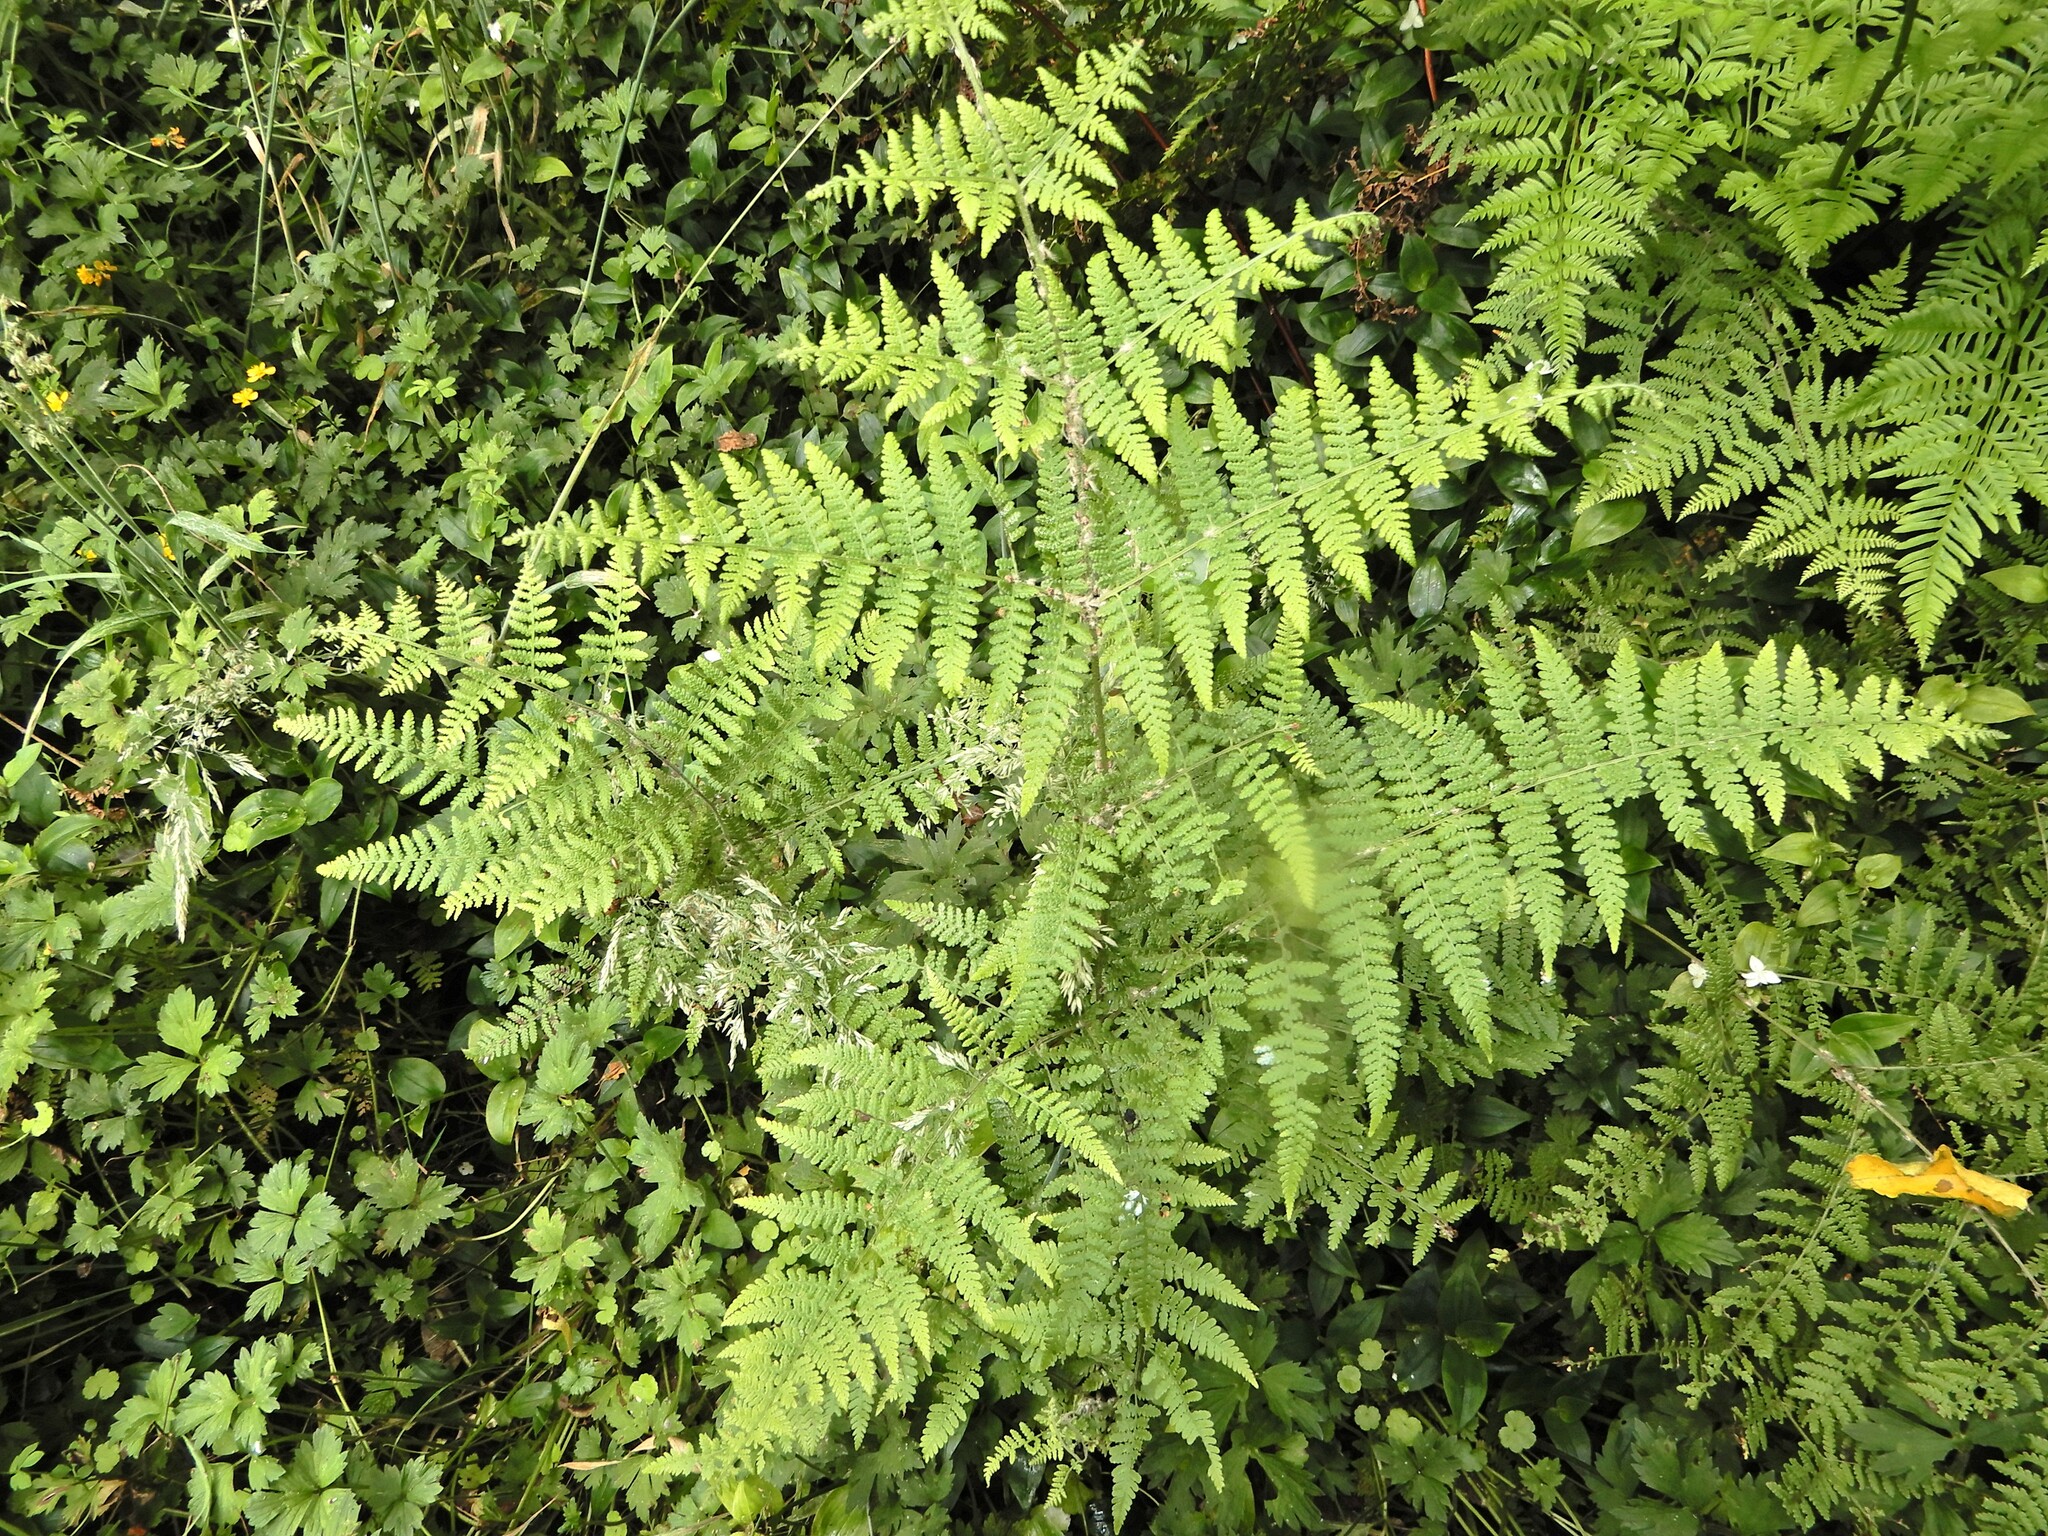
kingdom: Plantae
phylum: Tracheophyta
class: Polypodiopsida
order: Polypodiales
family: Dennstaedtiaceae
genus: Hypolepis
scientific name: Hypolepis ambigua
